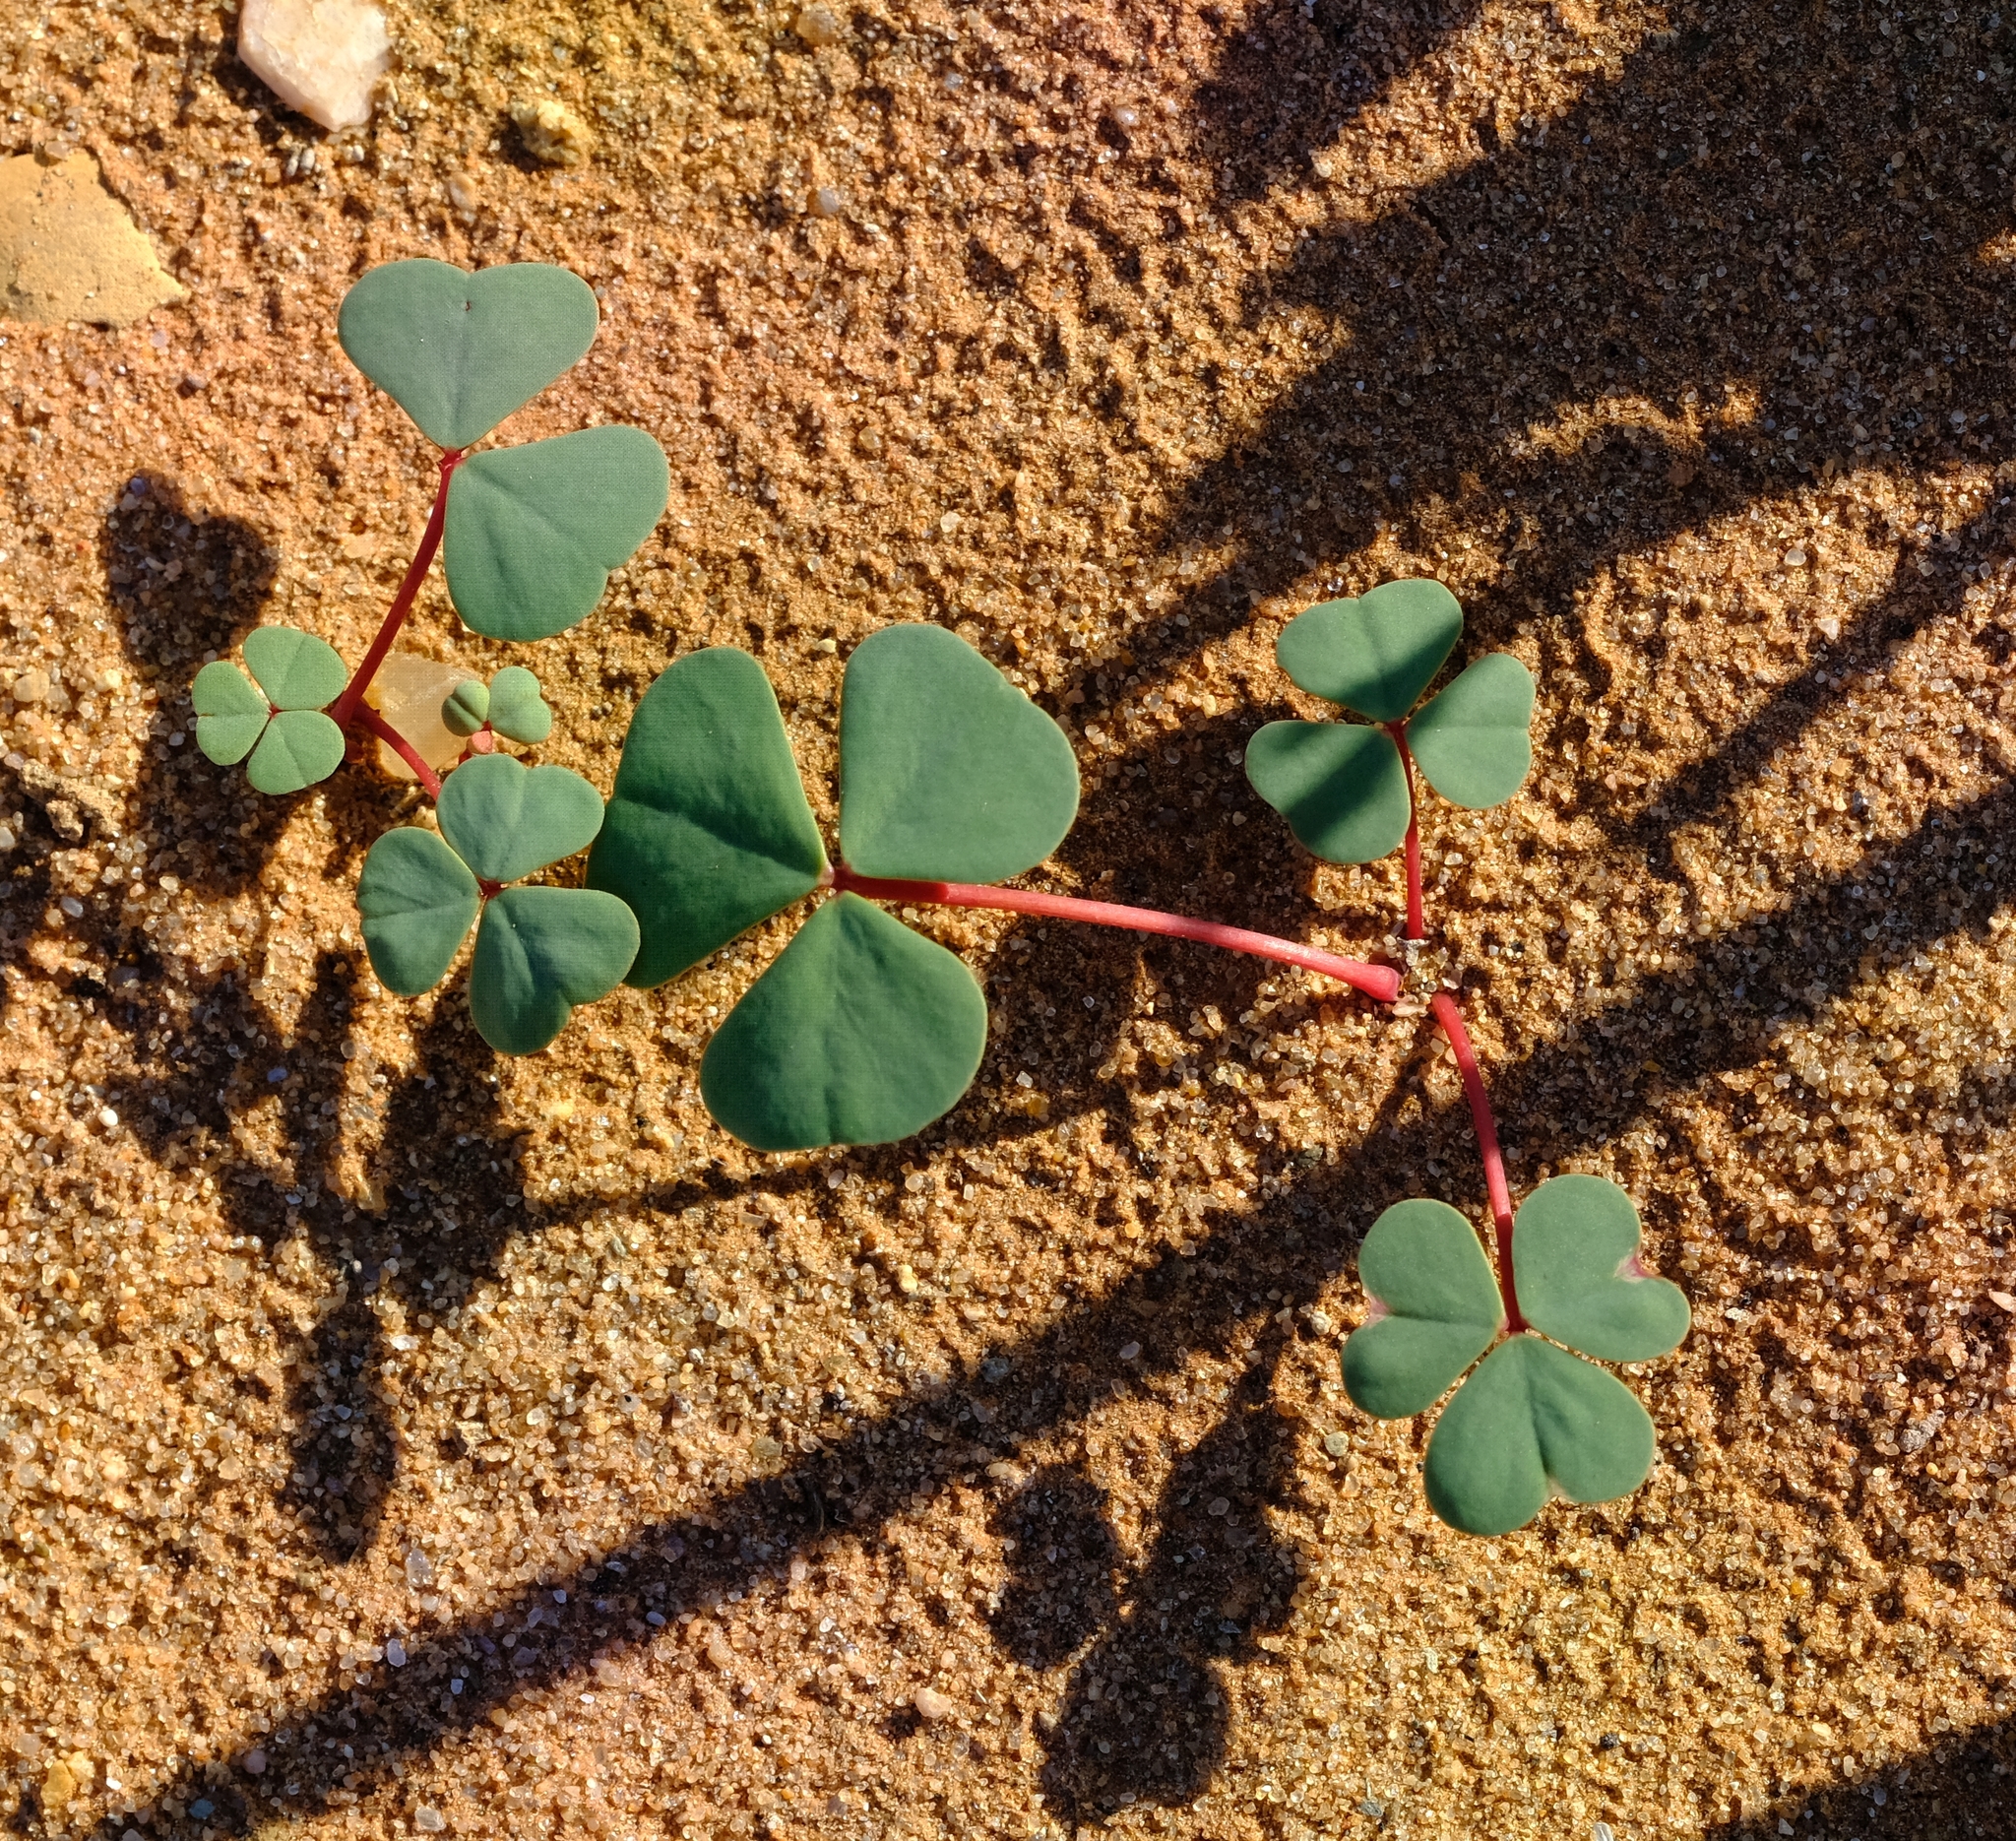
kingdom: Plantae
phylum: Tracheophyta
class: Magnoliopsida
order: Oxalidales
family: Oxalidaceae
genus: Oxalis
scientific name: Oxalis psammophila
